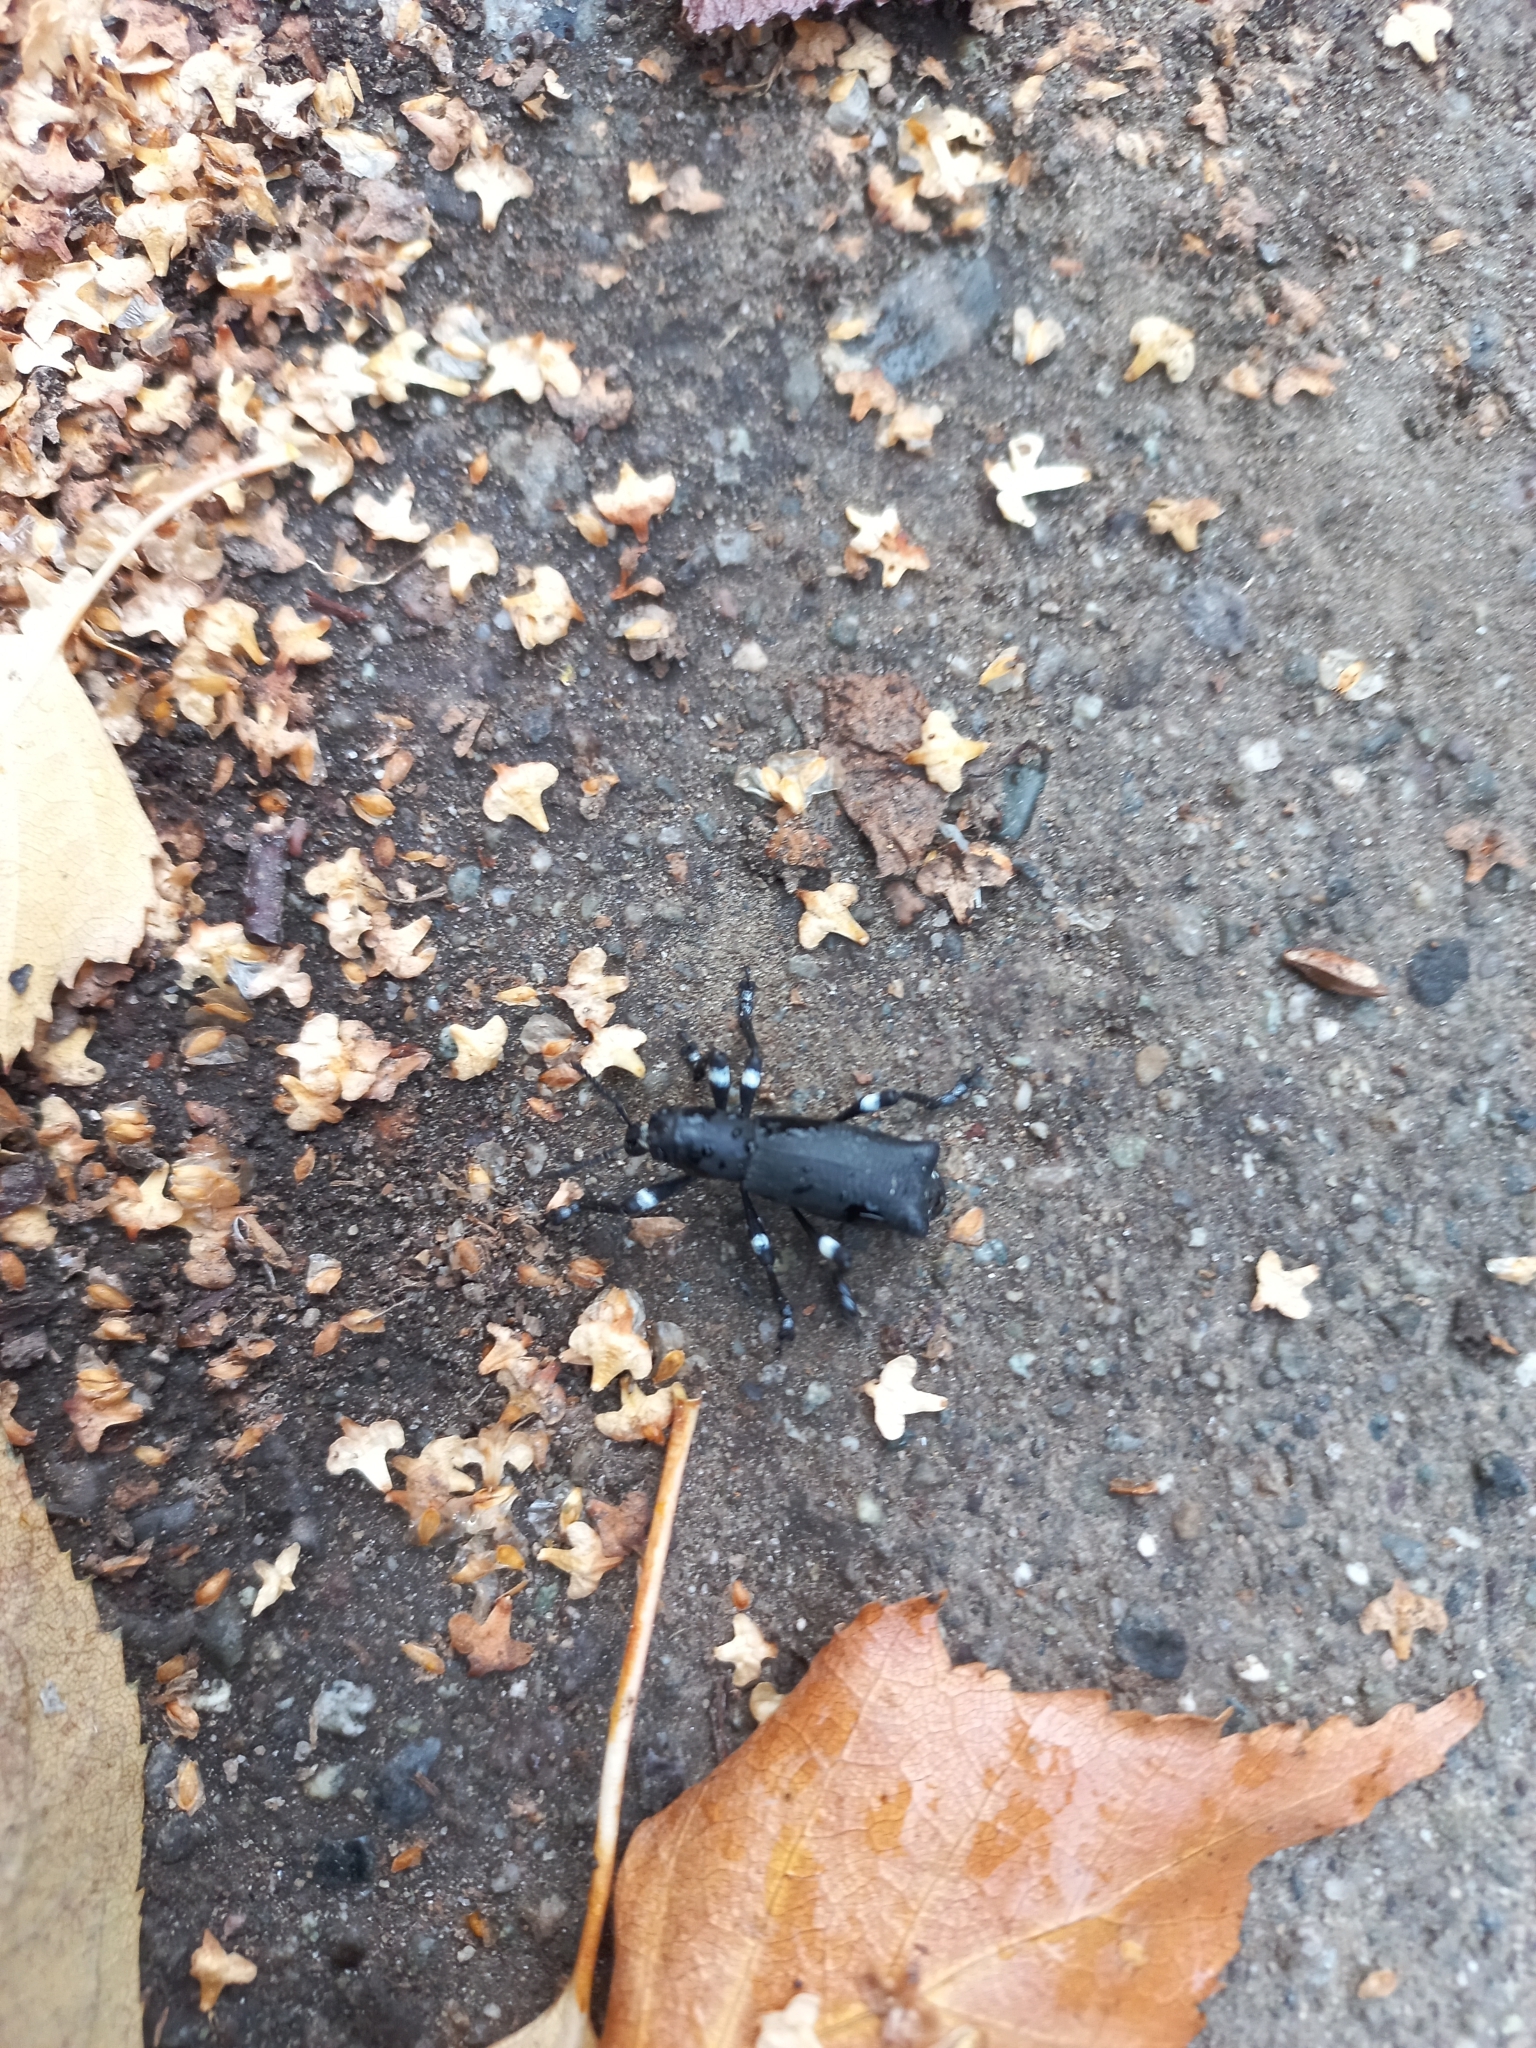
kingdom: Animalia
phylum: Arthropoda
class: Insecta
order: Coleoptera
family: Curculionidae
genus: Aegorhinus
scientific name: Aegorhinus
